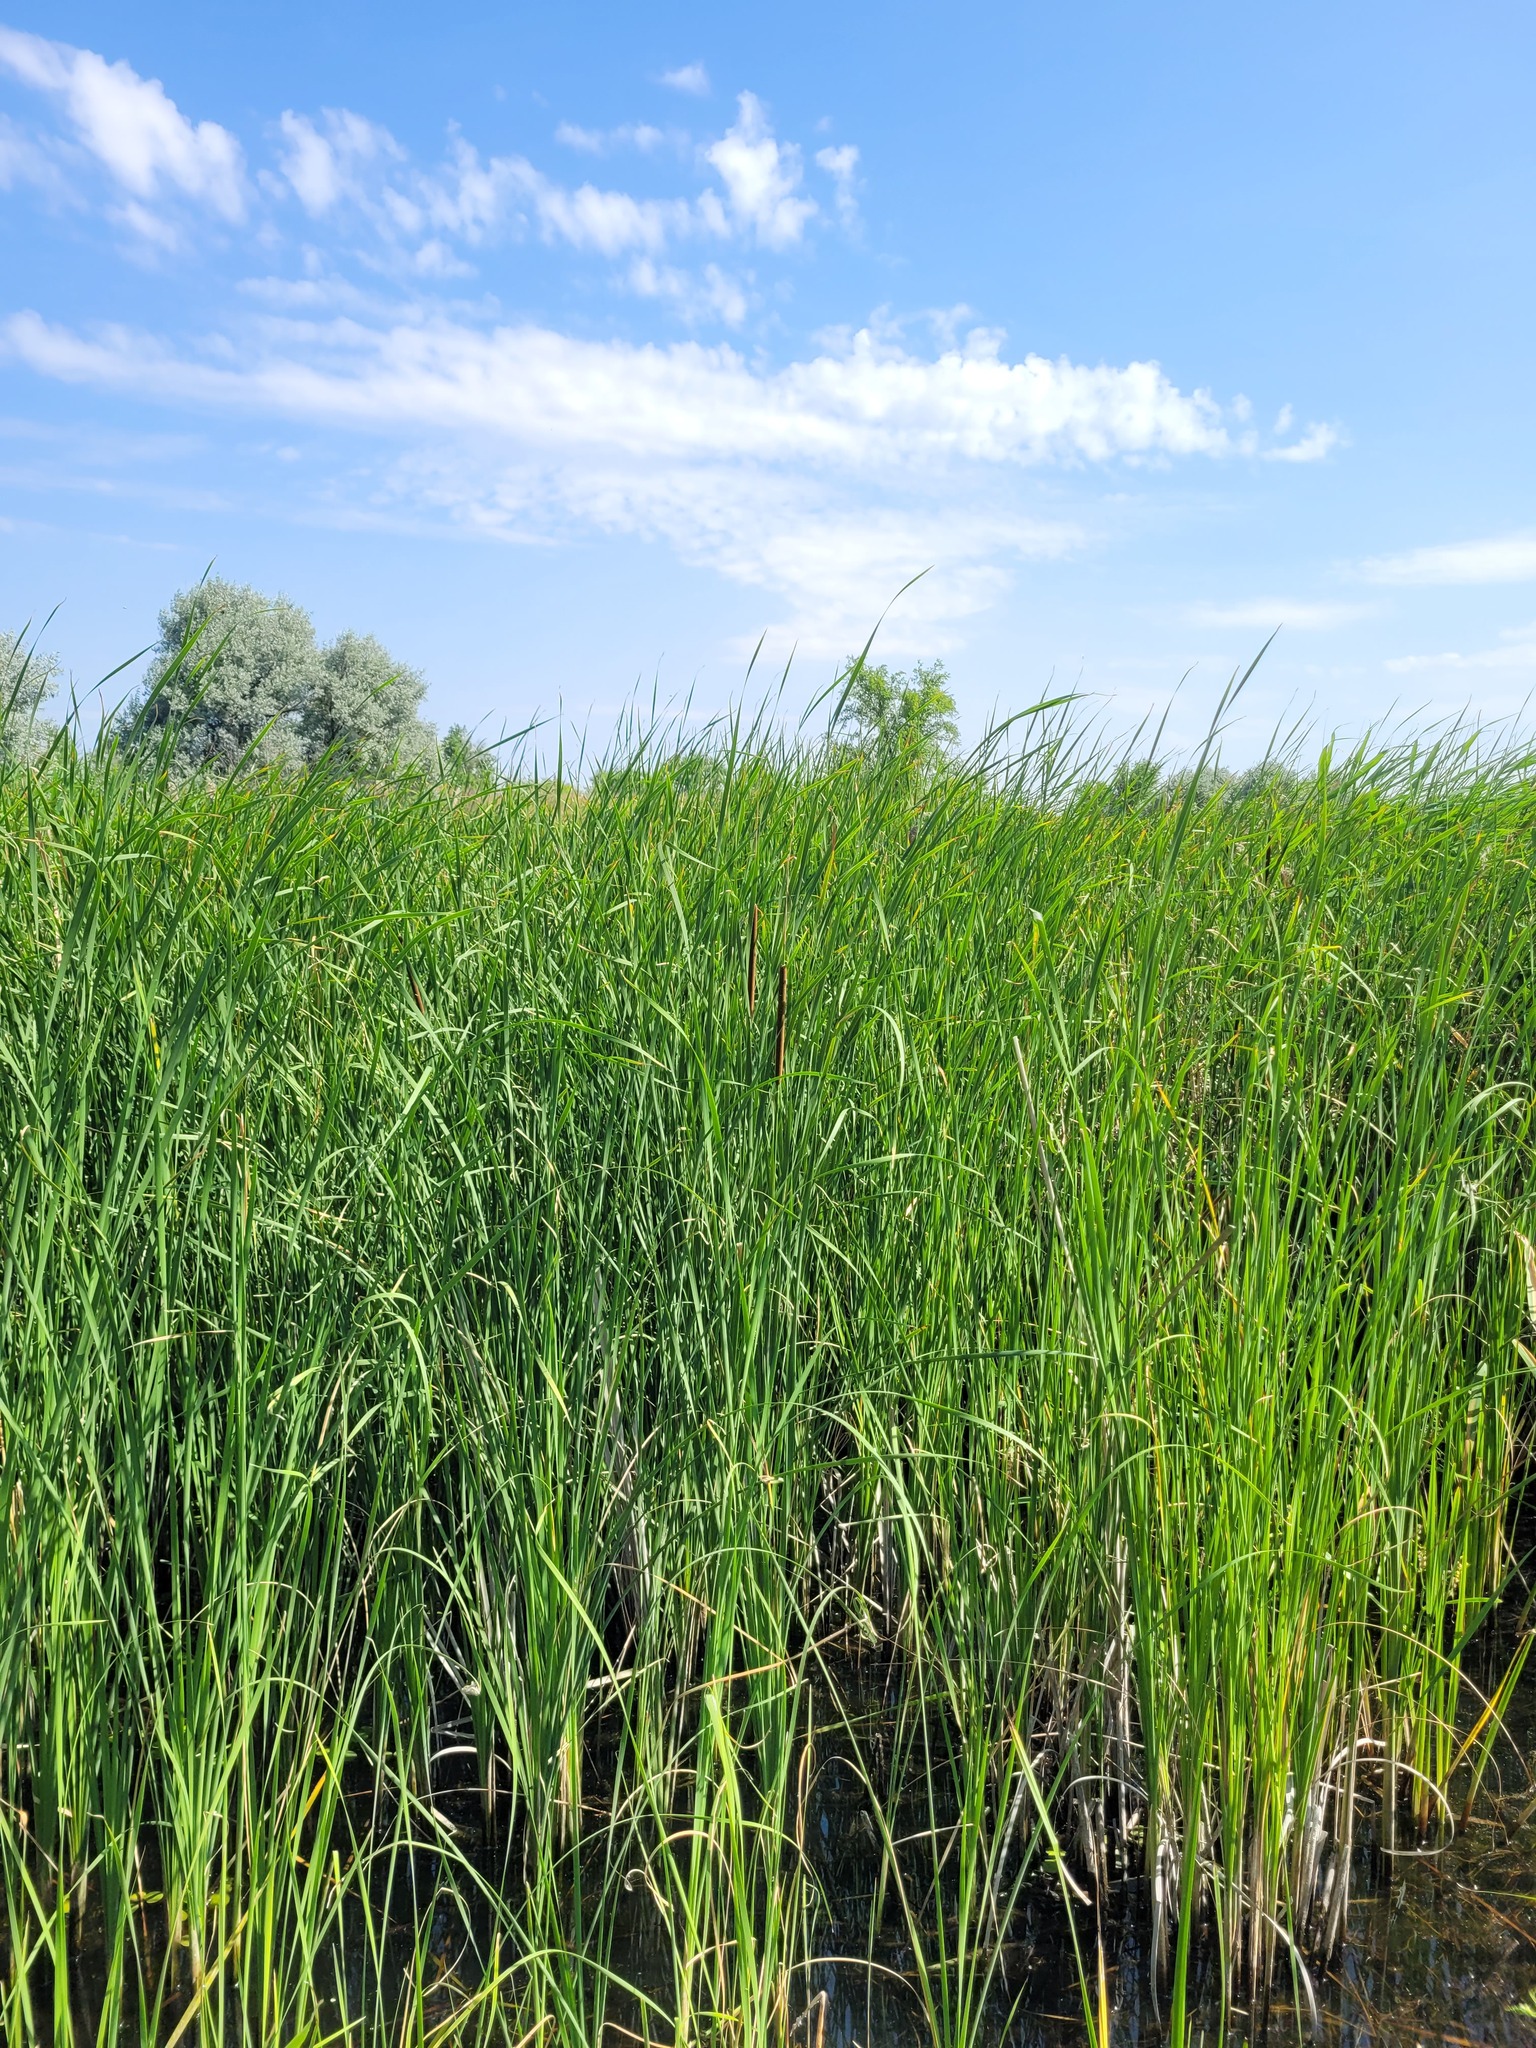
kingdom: Plantae
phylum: Tracheophyta
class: Liliopsida
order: Poales
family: Typhaceae
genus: Typha
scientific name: Typha angustifolia
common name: Lesser bulrush
